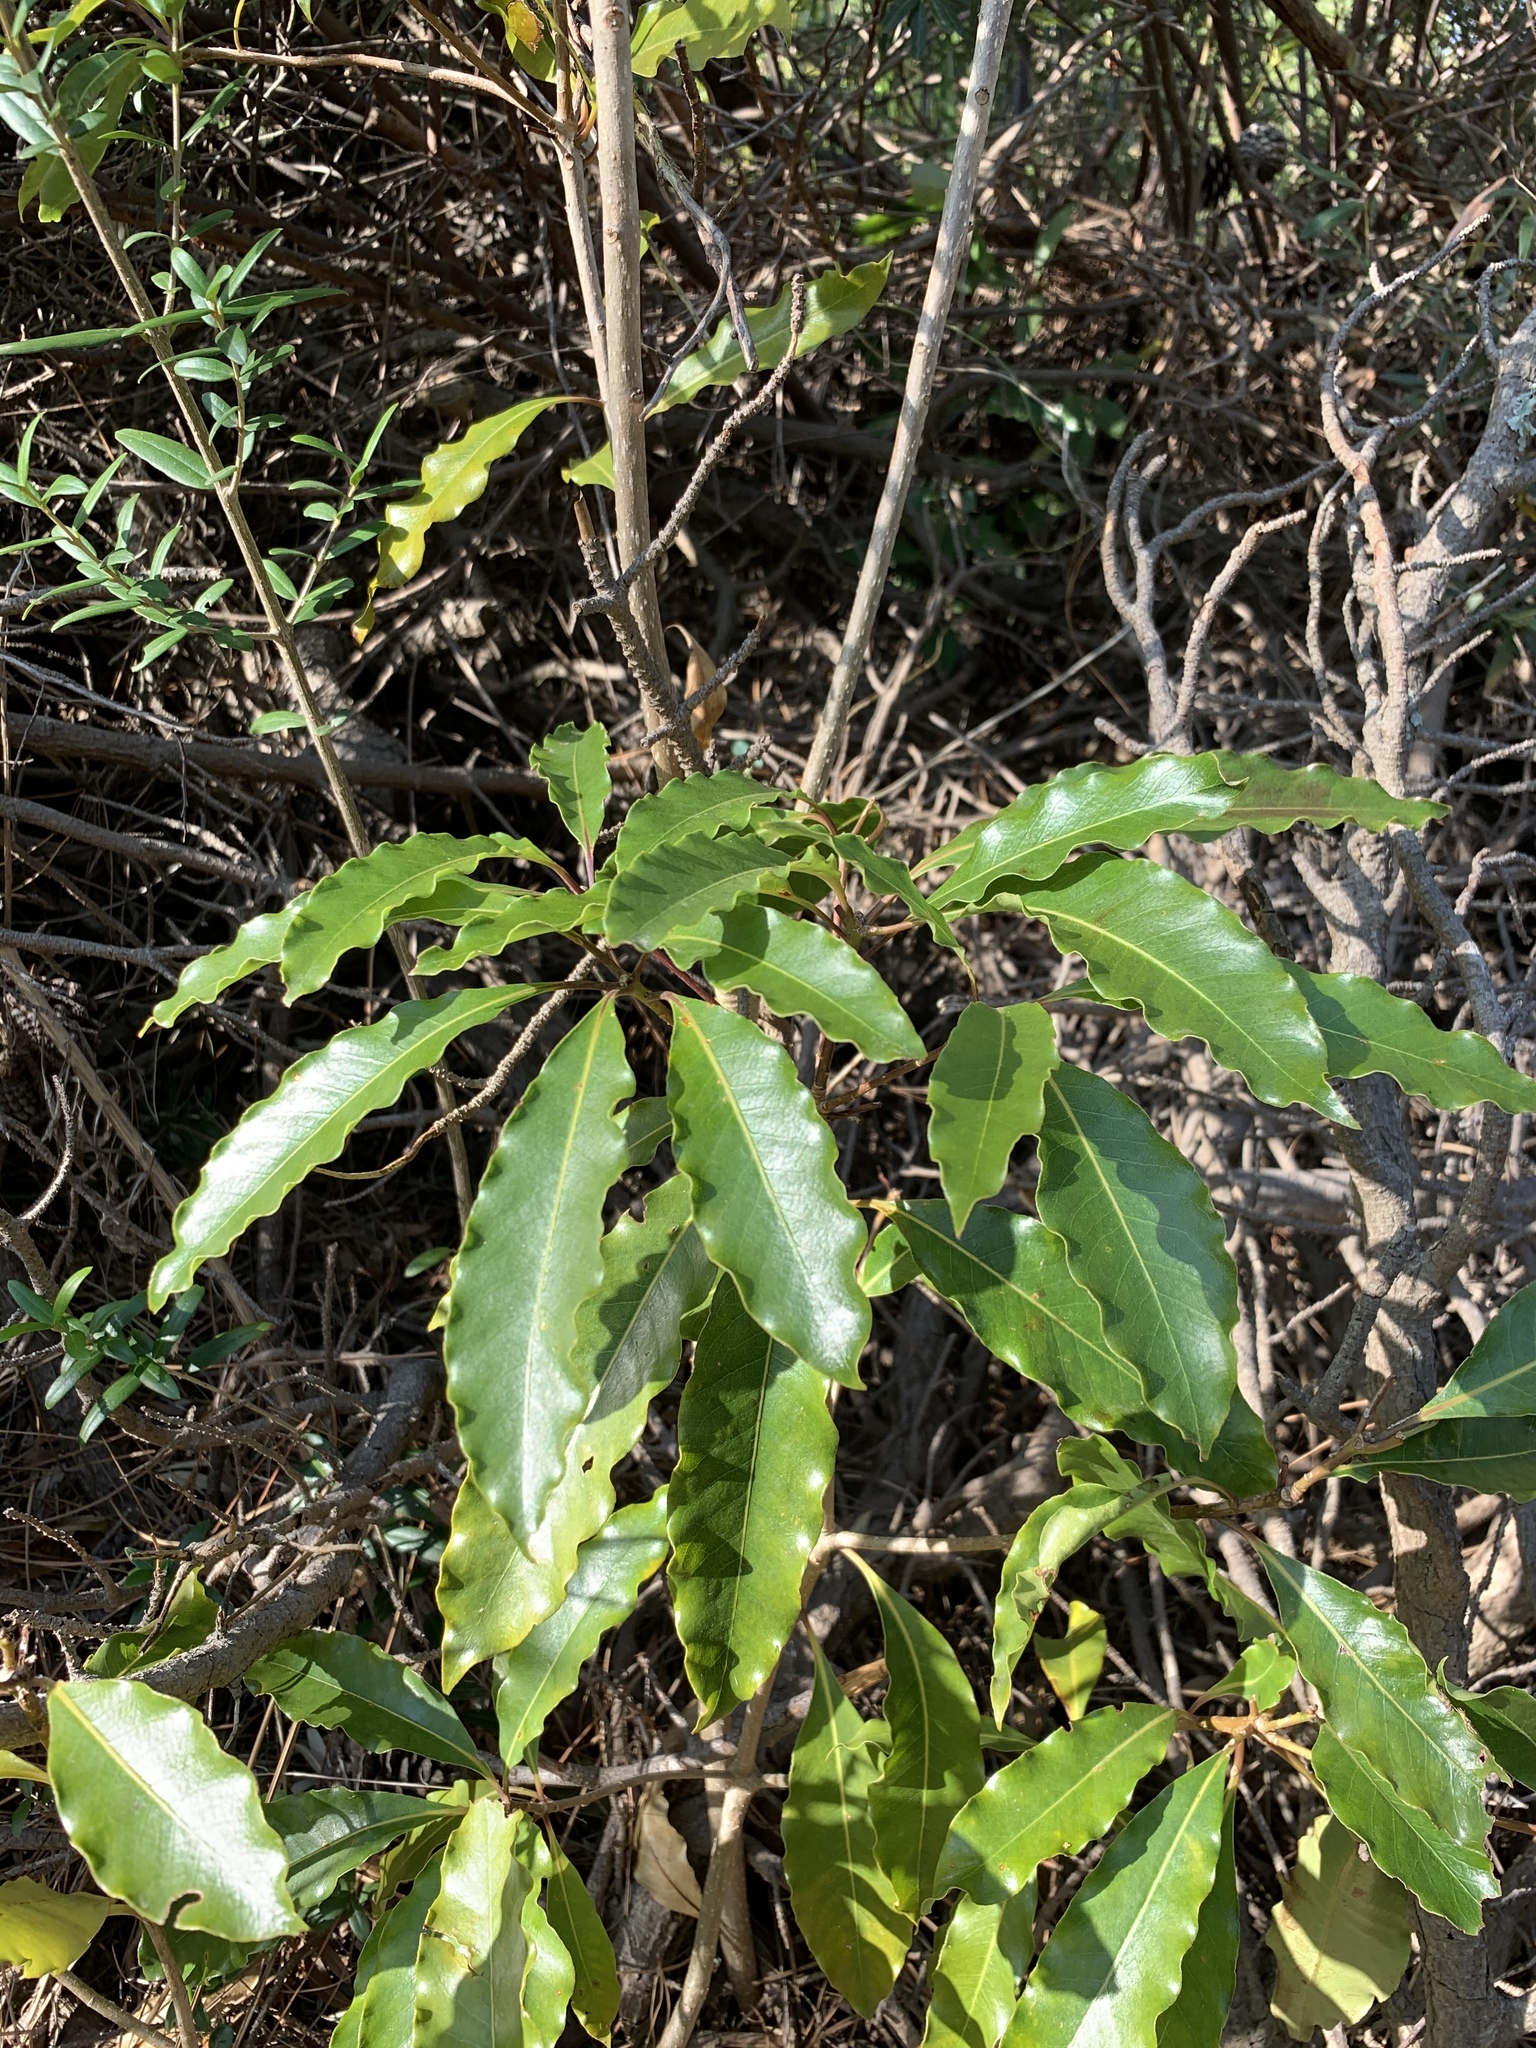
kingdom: Plantae
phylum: Tracheophyta
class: Magnoliopsida
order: Apiales
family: Pittosporaceae
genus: Pittosporum
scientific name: Pittosporum undulatum
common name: Australian cheesewood
